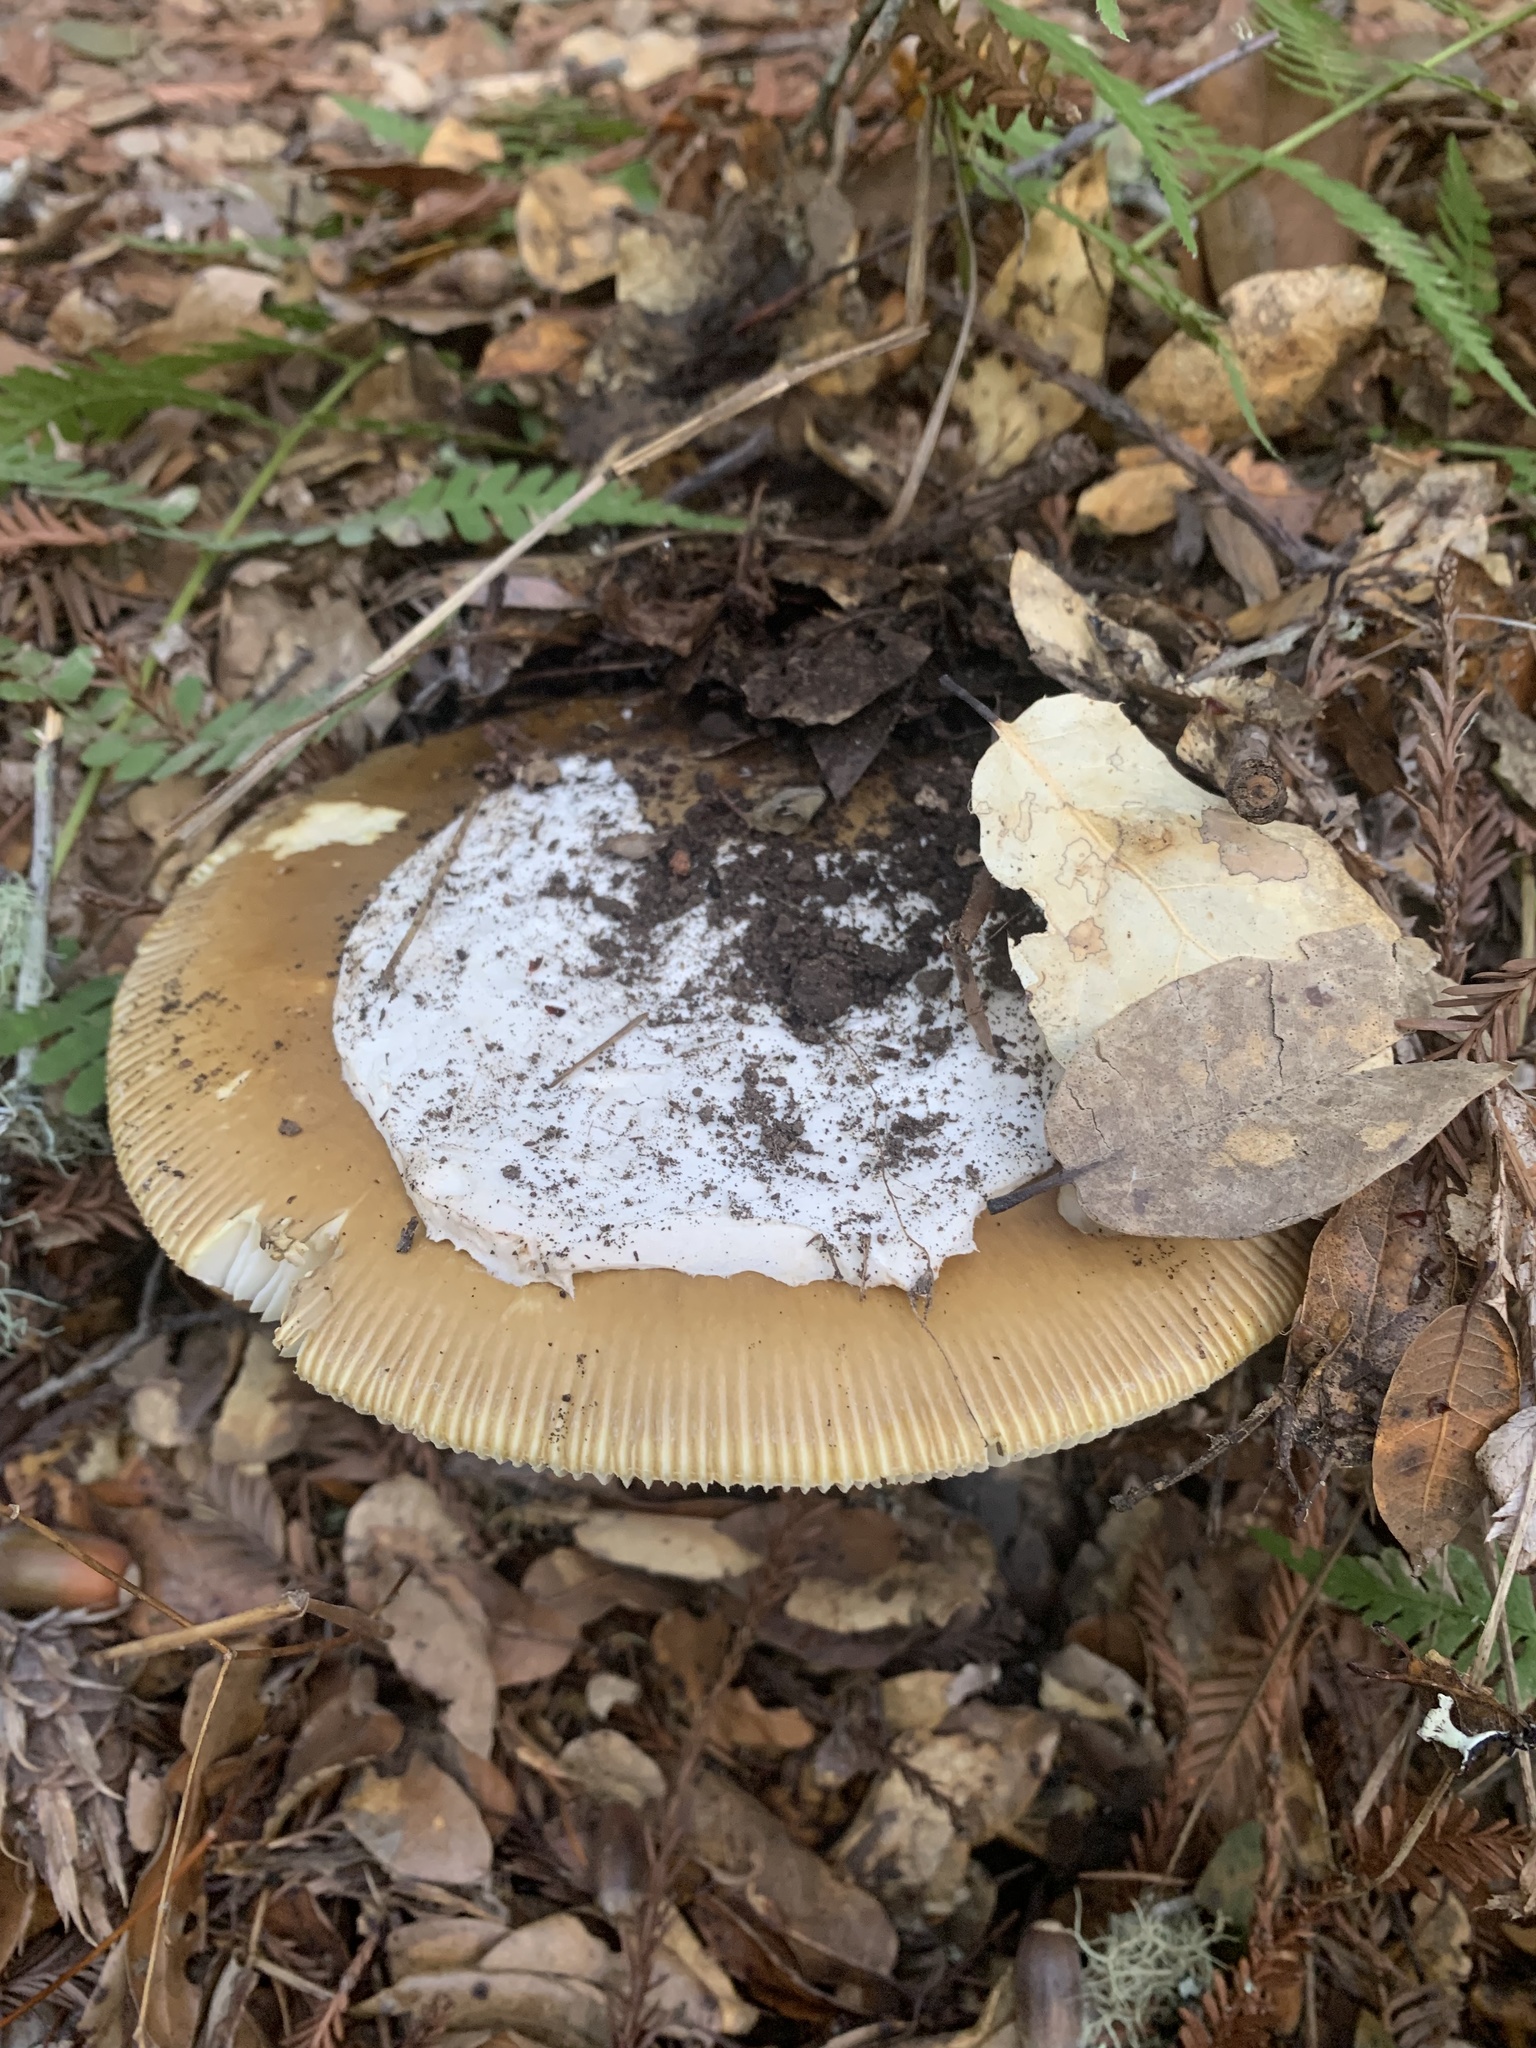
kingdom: Fungi
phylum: Basidiomycota
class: Agaricomycetes
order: Agaricales
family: Amanitaceae
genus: Amanita
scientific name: Amanita calyptroderma
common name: Coccora
